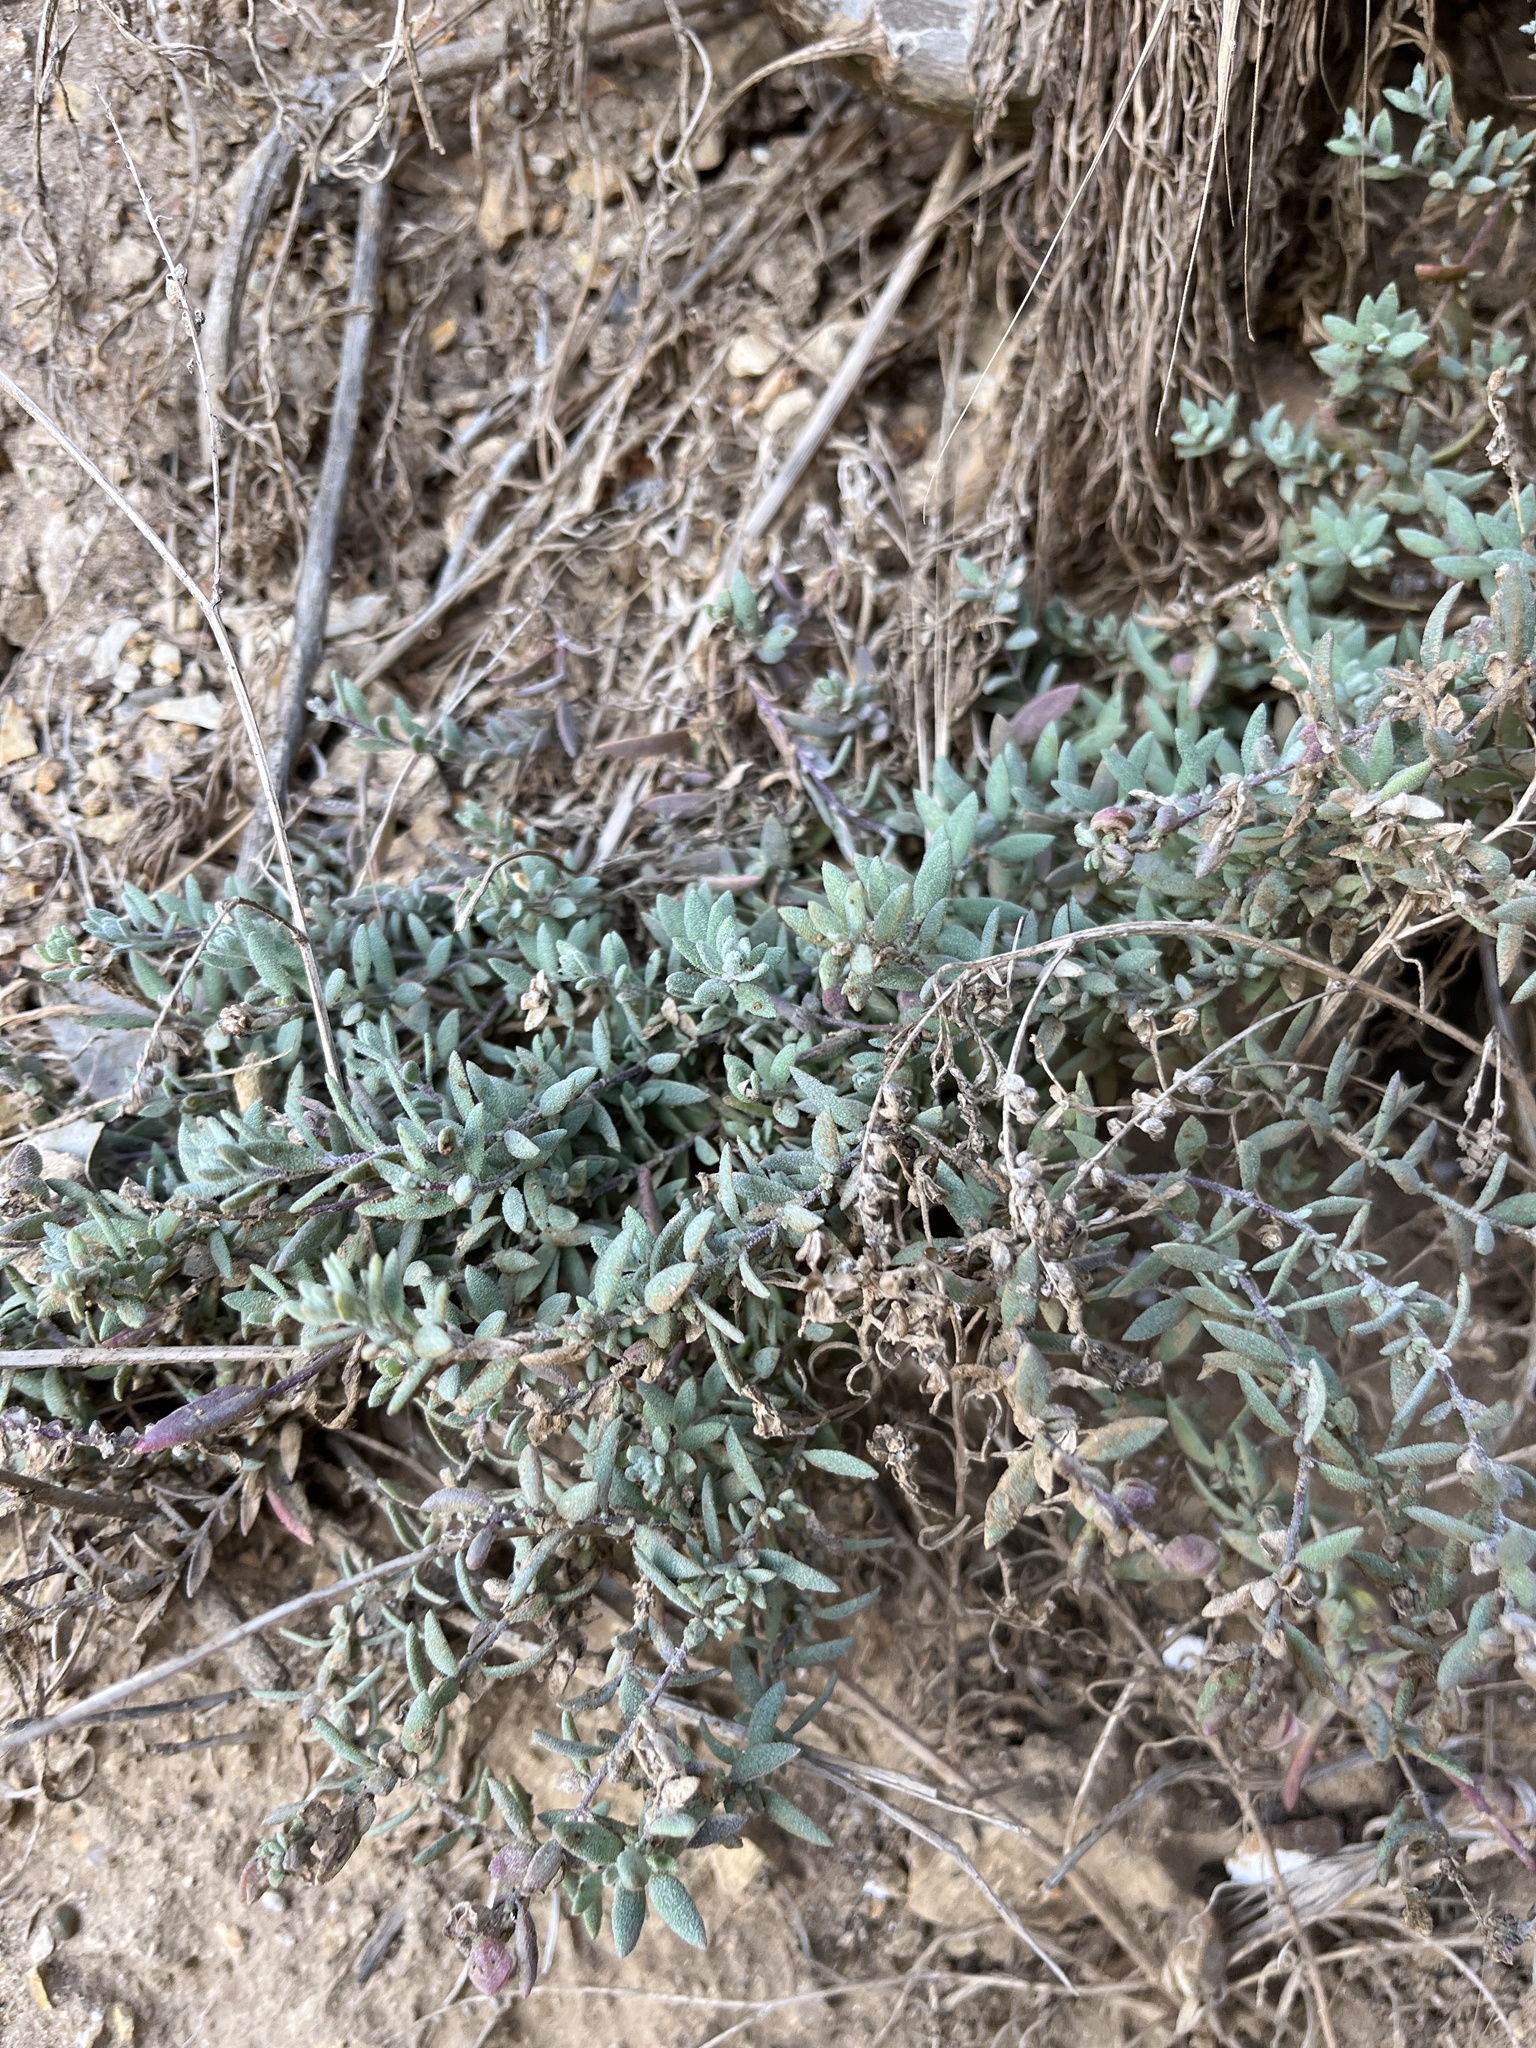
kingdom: Plantae
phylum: Tracheophyta
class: Magnoliopsida
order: Caryophyllales
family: Amaranthaceae
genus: Extriplex
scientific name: Extriplex californica
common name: California saltbush
